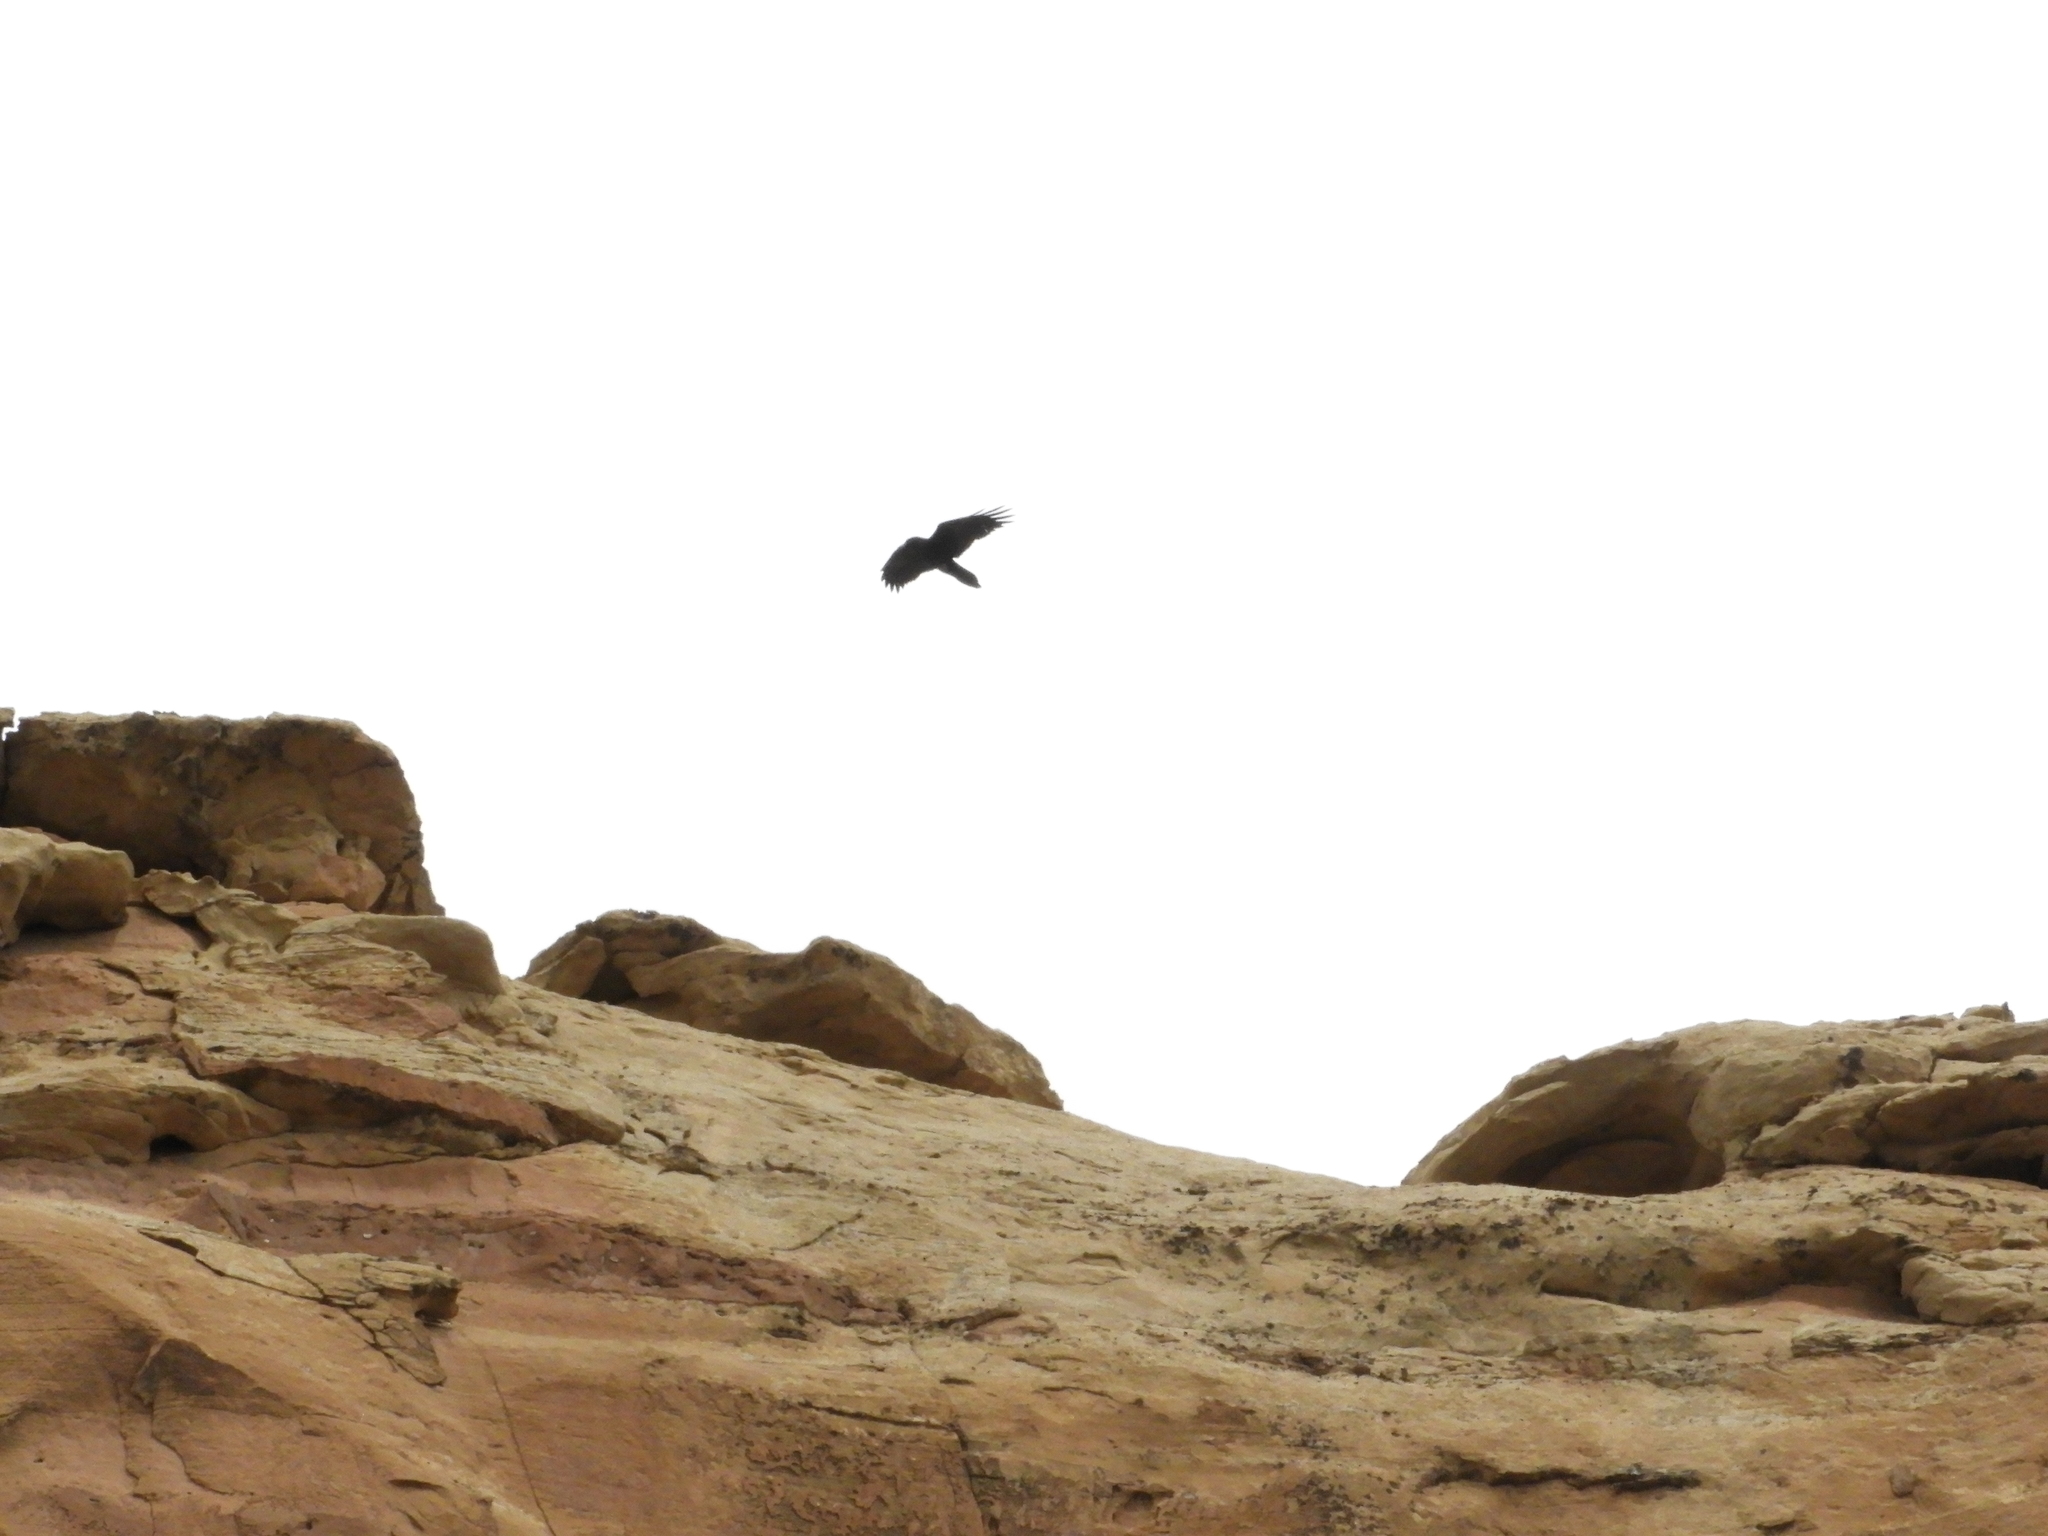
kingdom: Animalia
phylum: Chordata
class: Aves
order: Passeriformes
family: Corvidae
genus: Corvus
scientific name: Corvus corax
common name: Common raven
